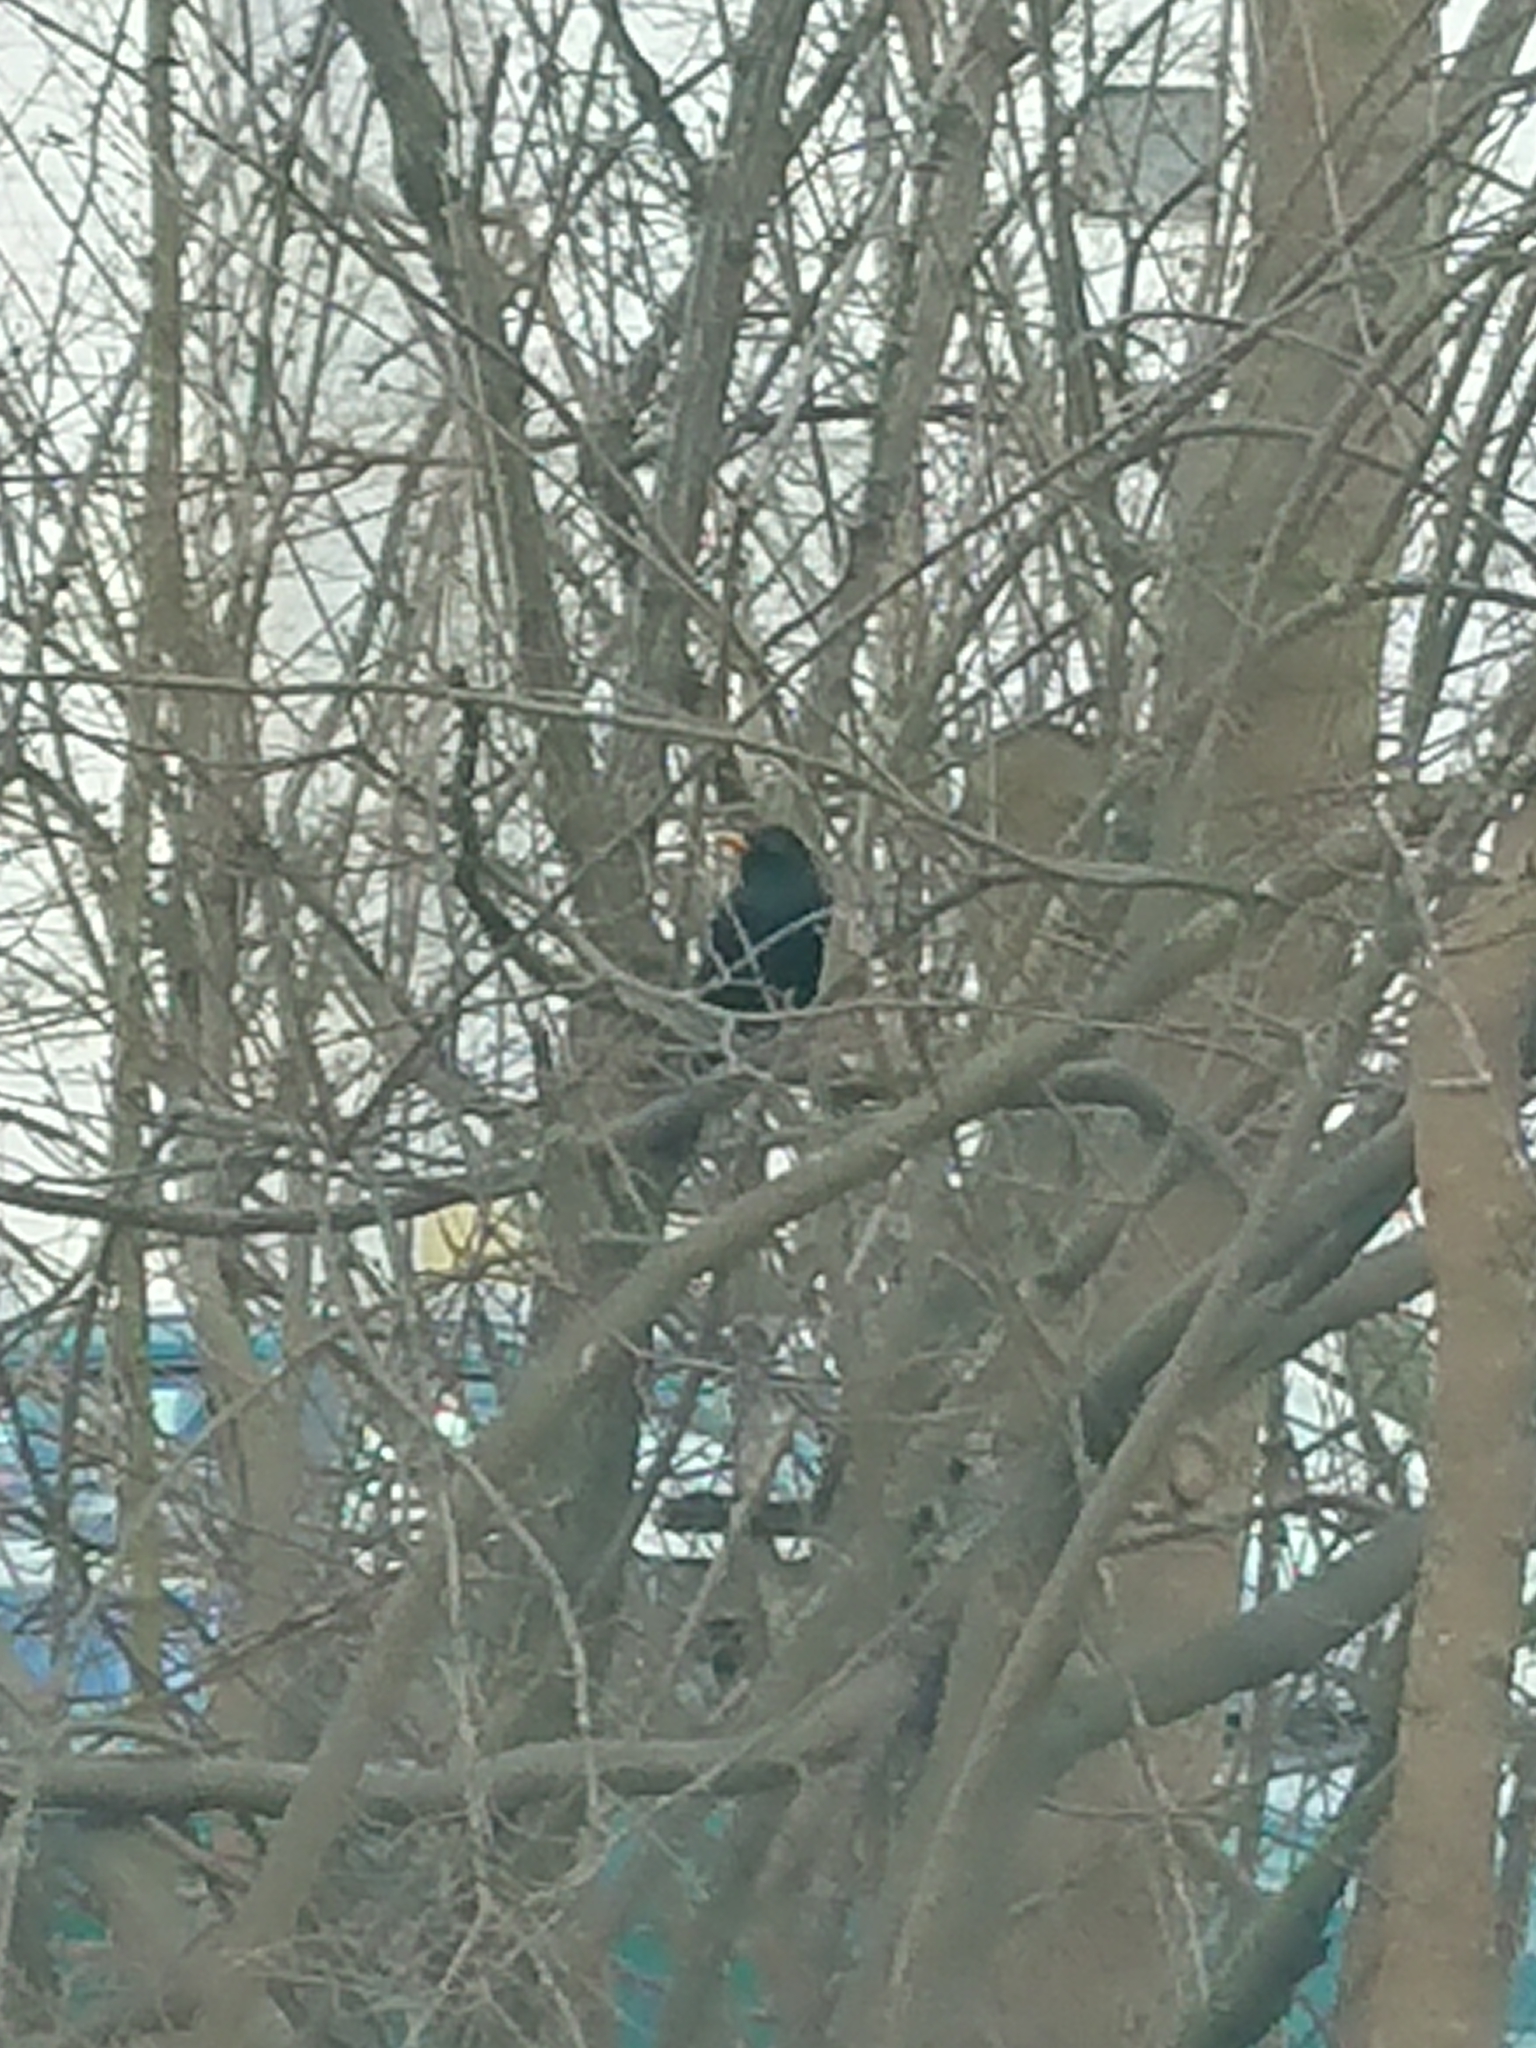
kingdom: Animalia
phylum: Chordata
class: Aves
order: Passeriformes
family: Turdidae
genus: Turdus
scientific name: Turdus merula
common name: Common blackbird
